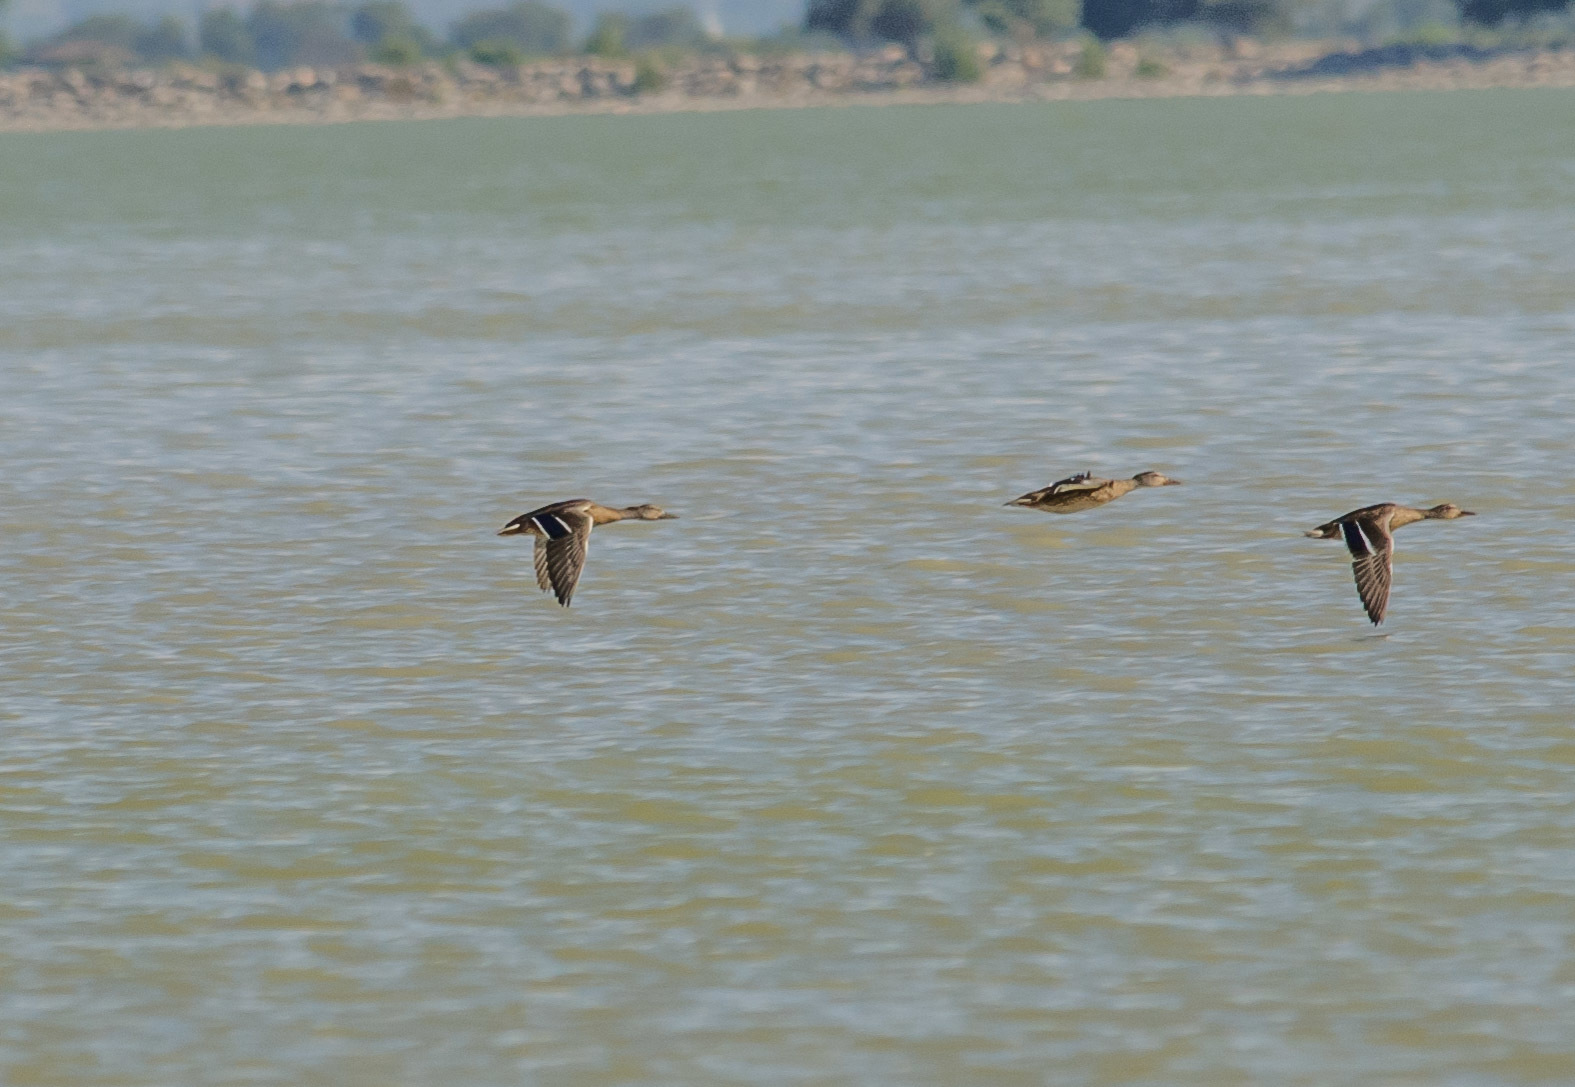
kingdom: Animalia
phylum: Chordata
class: Aves
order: Anseriformes
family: Anatidae
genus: Anas
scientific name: Anas platyrhynchos
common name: Mallard
